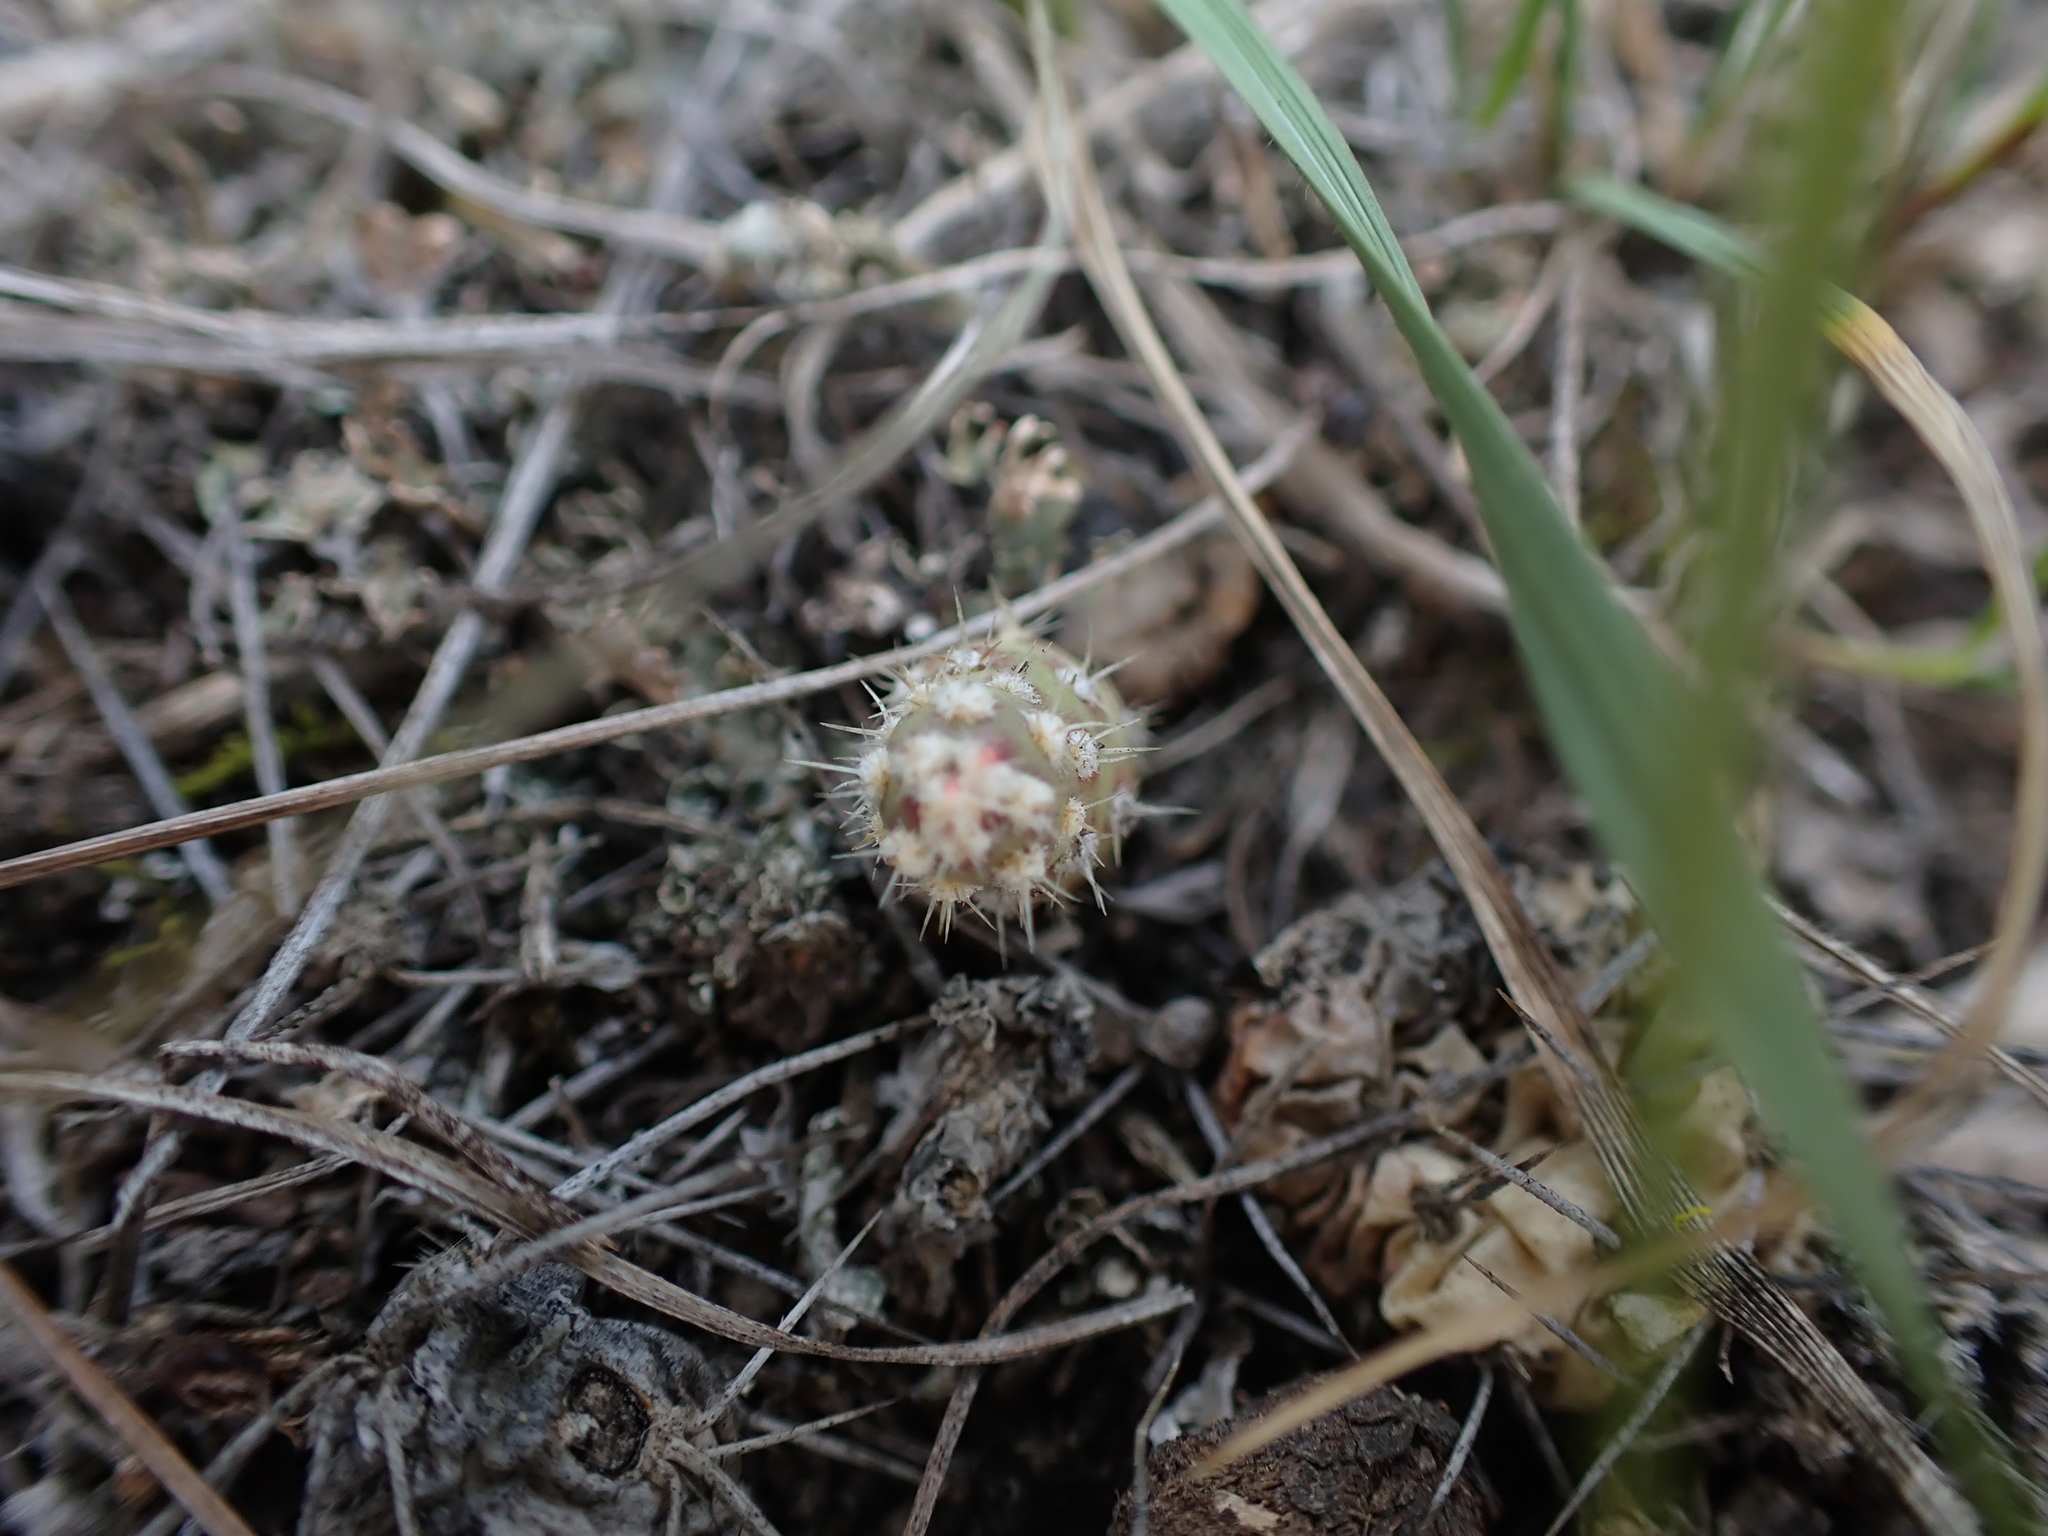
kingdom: Plantae
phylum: Tracheophyta
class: Magnoliopsida
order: Caryophyllales
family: Cactaceae
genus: Opuntia
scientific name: Opuntia fragilis
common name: Brittle cactus
